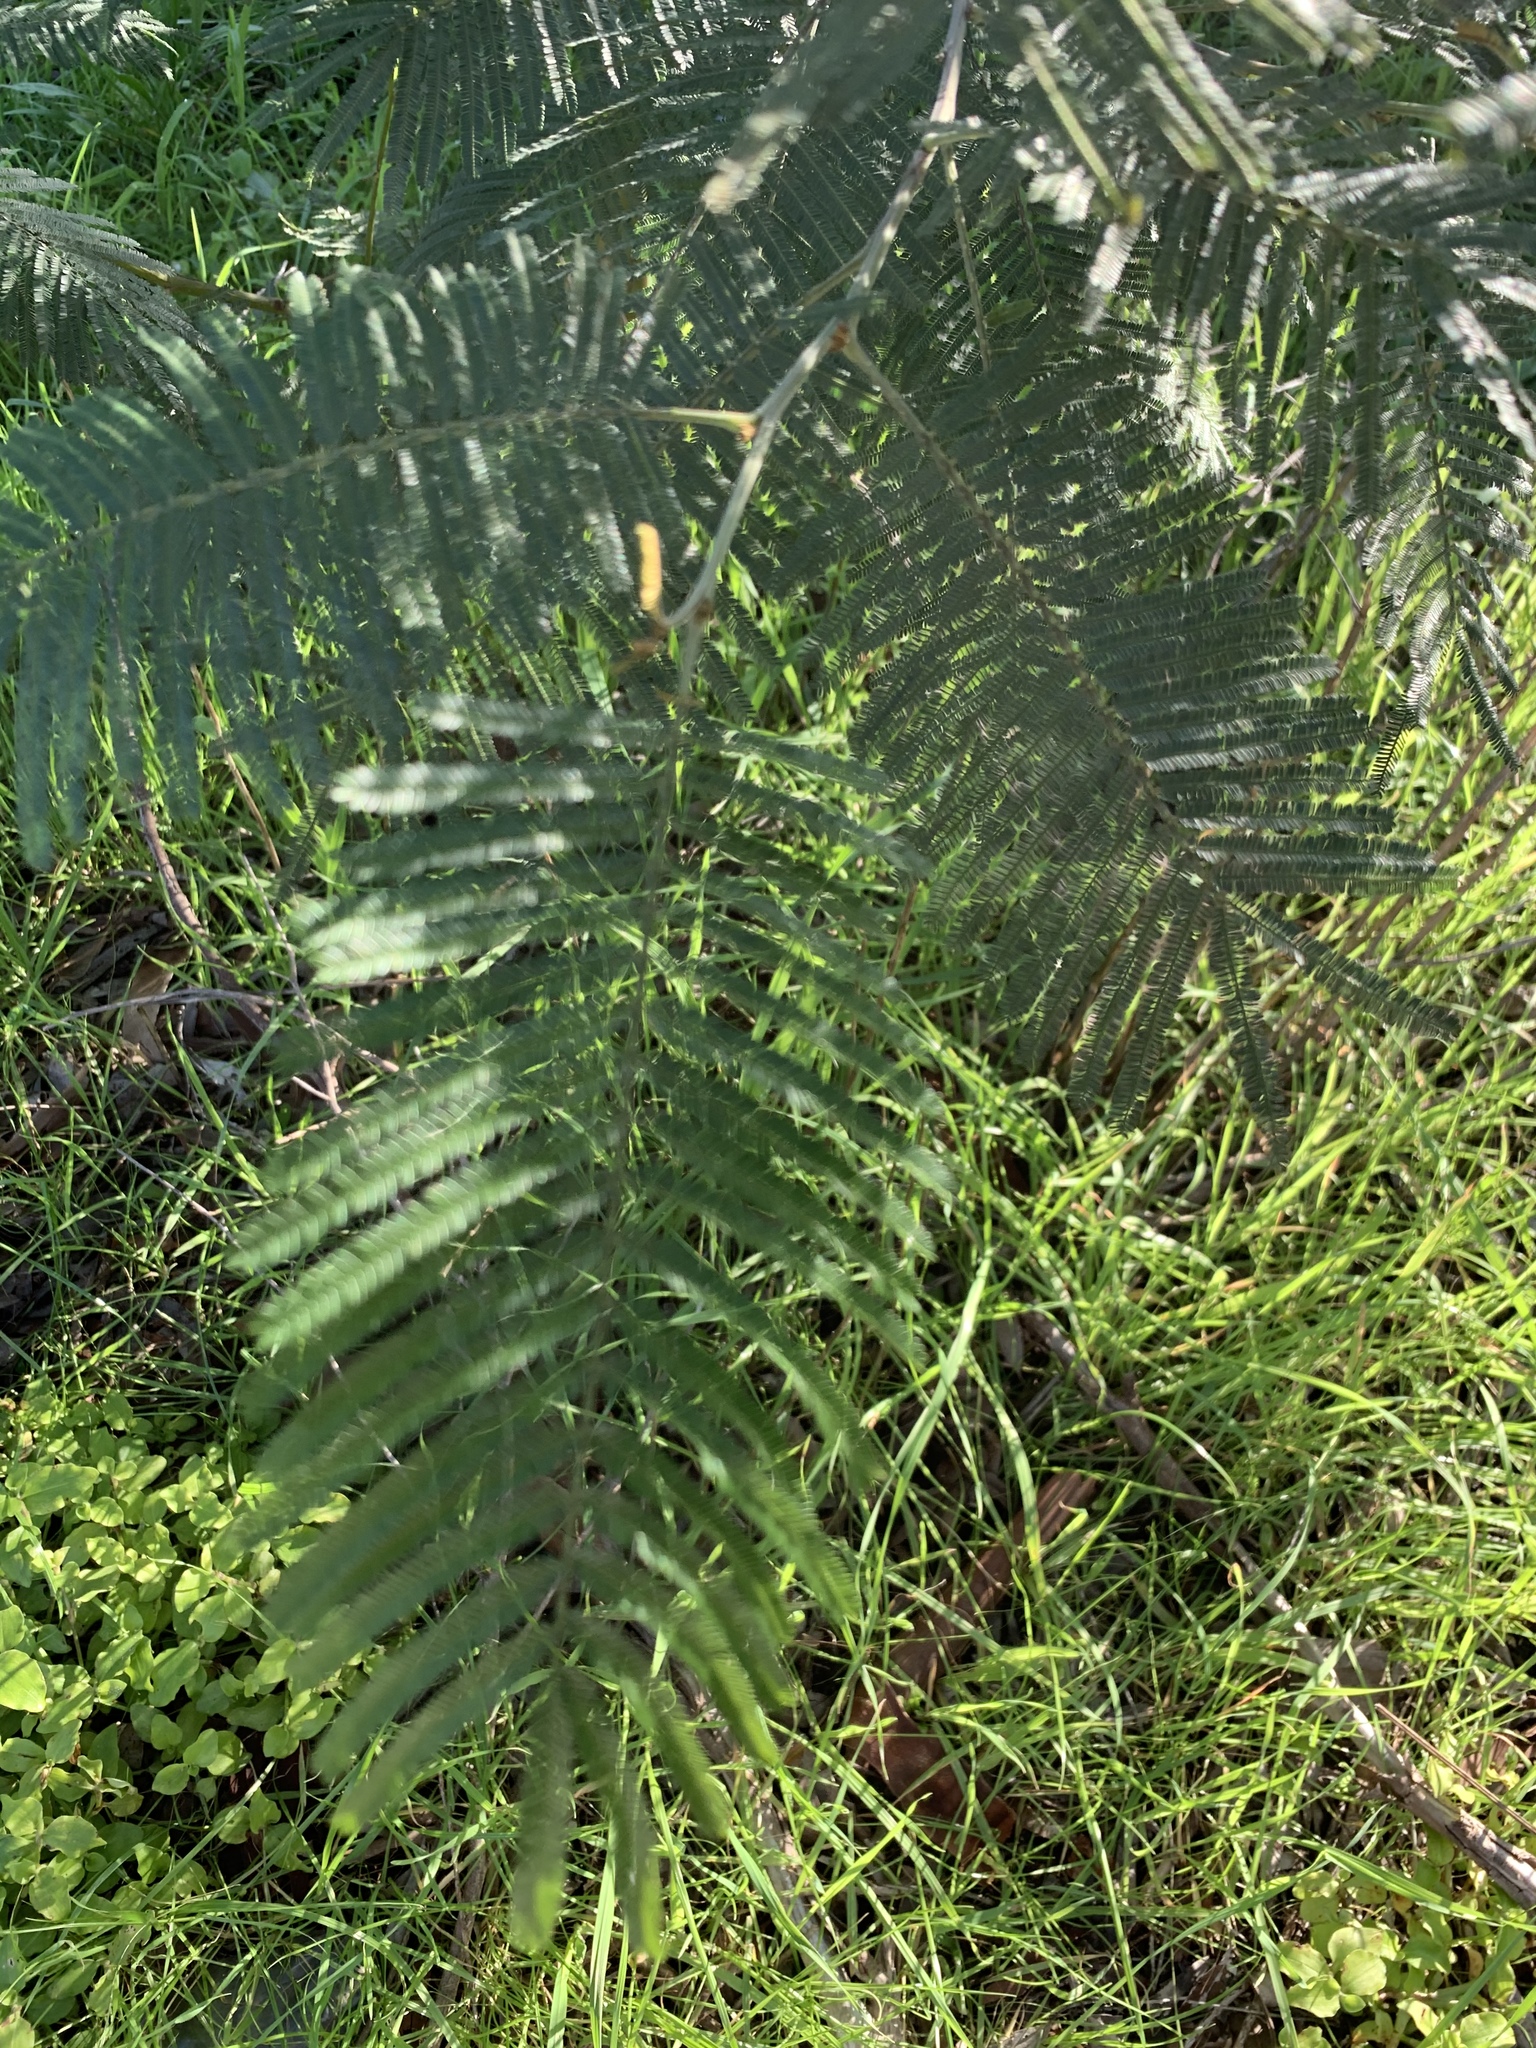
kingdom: Plantae
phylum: Tracheophyta
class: Magnoliopsida
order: Fabales
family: Fabaceae
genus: Acacia
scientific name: Acacia mearnsii
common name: Black wattle
